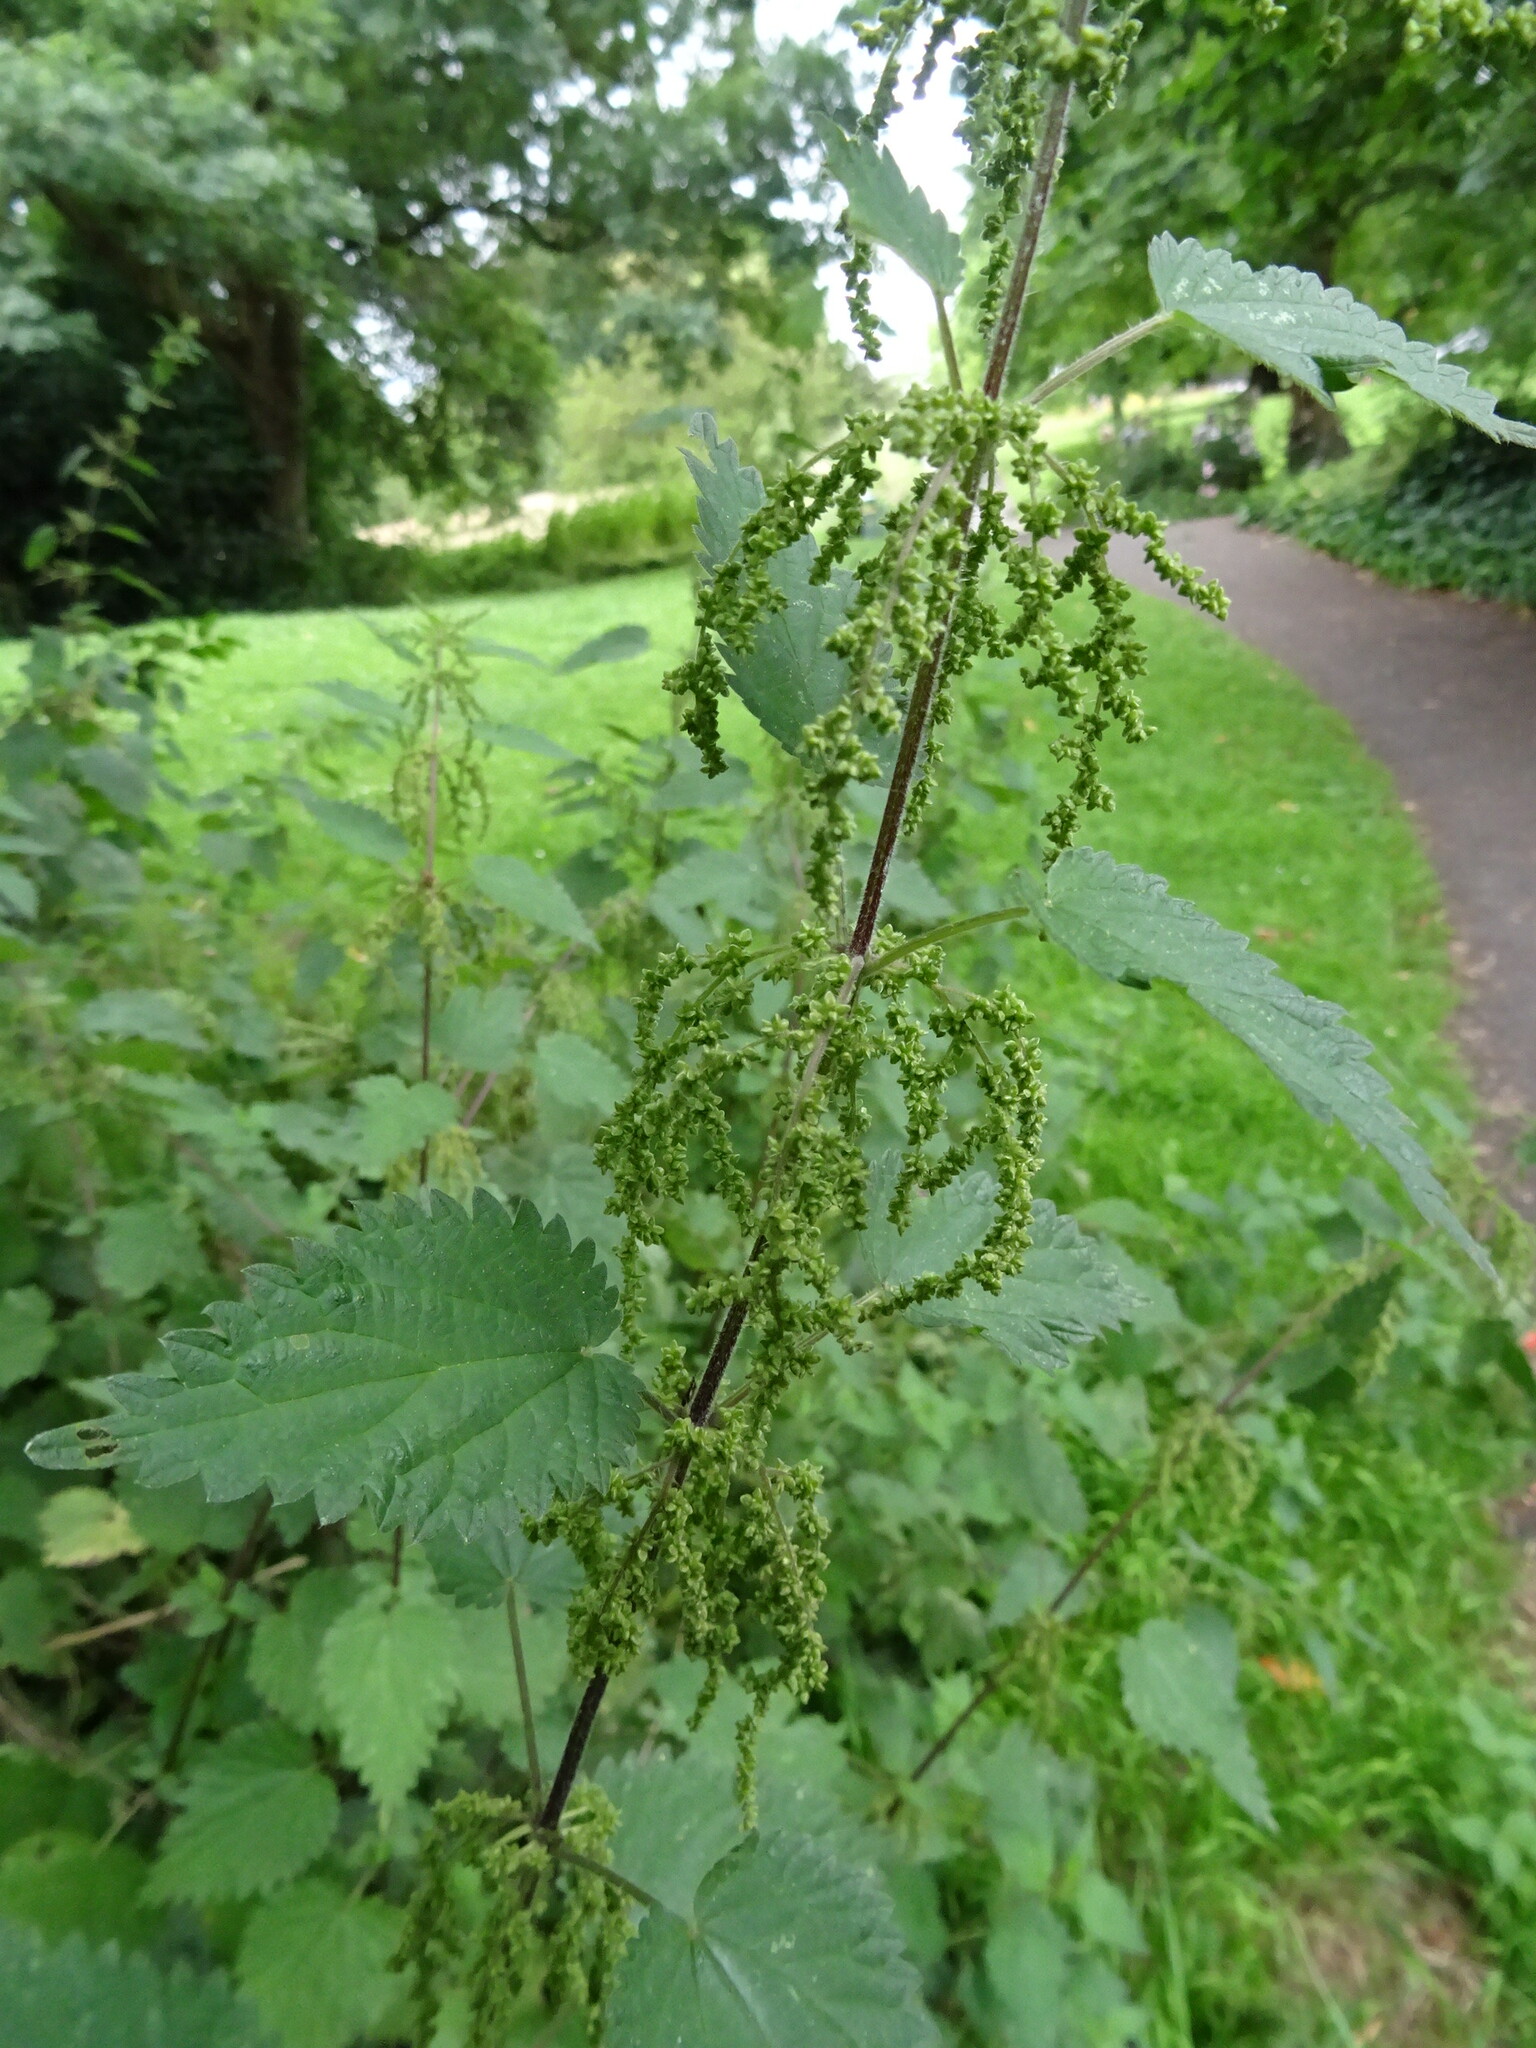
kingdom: Plantae
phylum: Tracheophyta
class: Magnoliopsida
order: Rosales
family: Urticaceae
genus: Urtica
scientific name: Urtica dioica
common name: Common nettle
